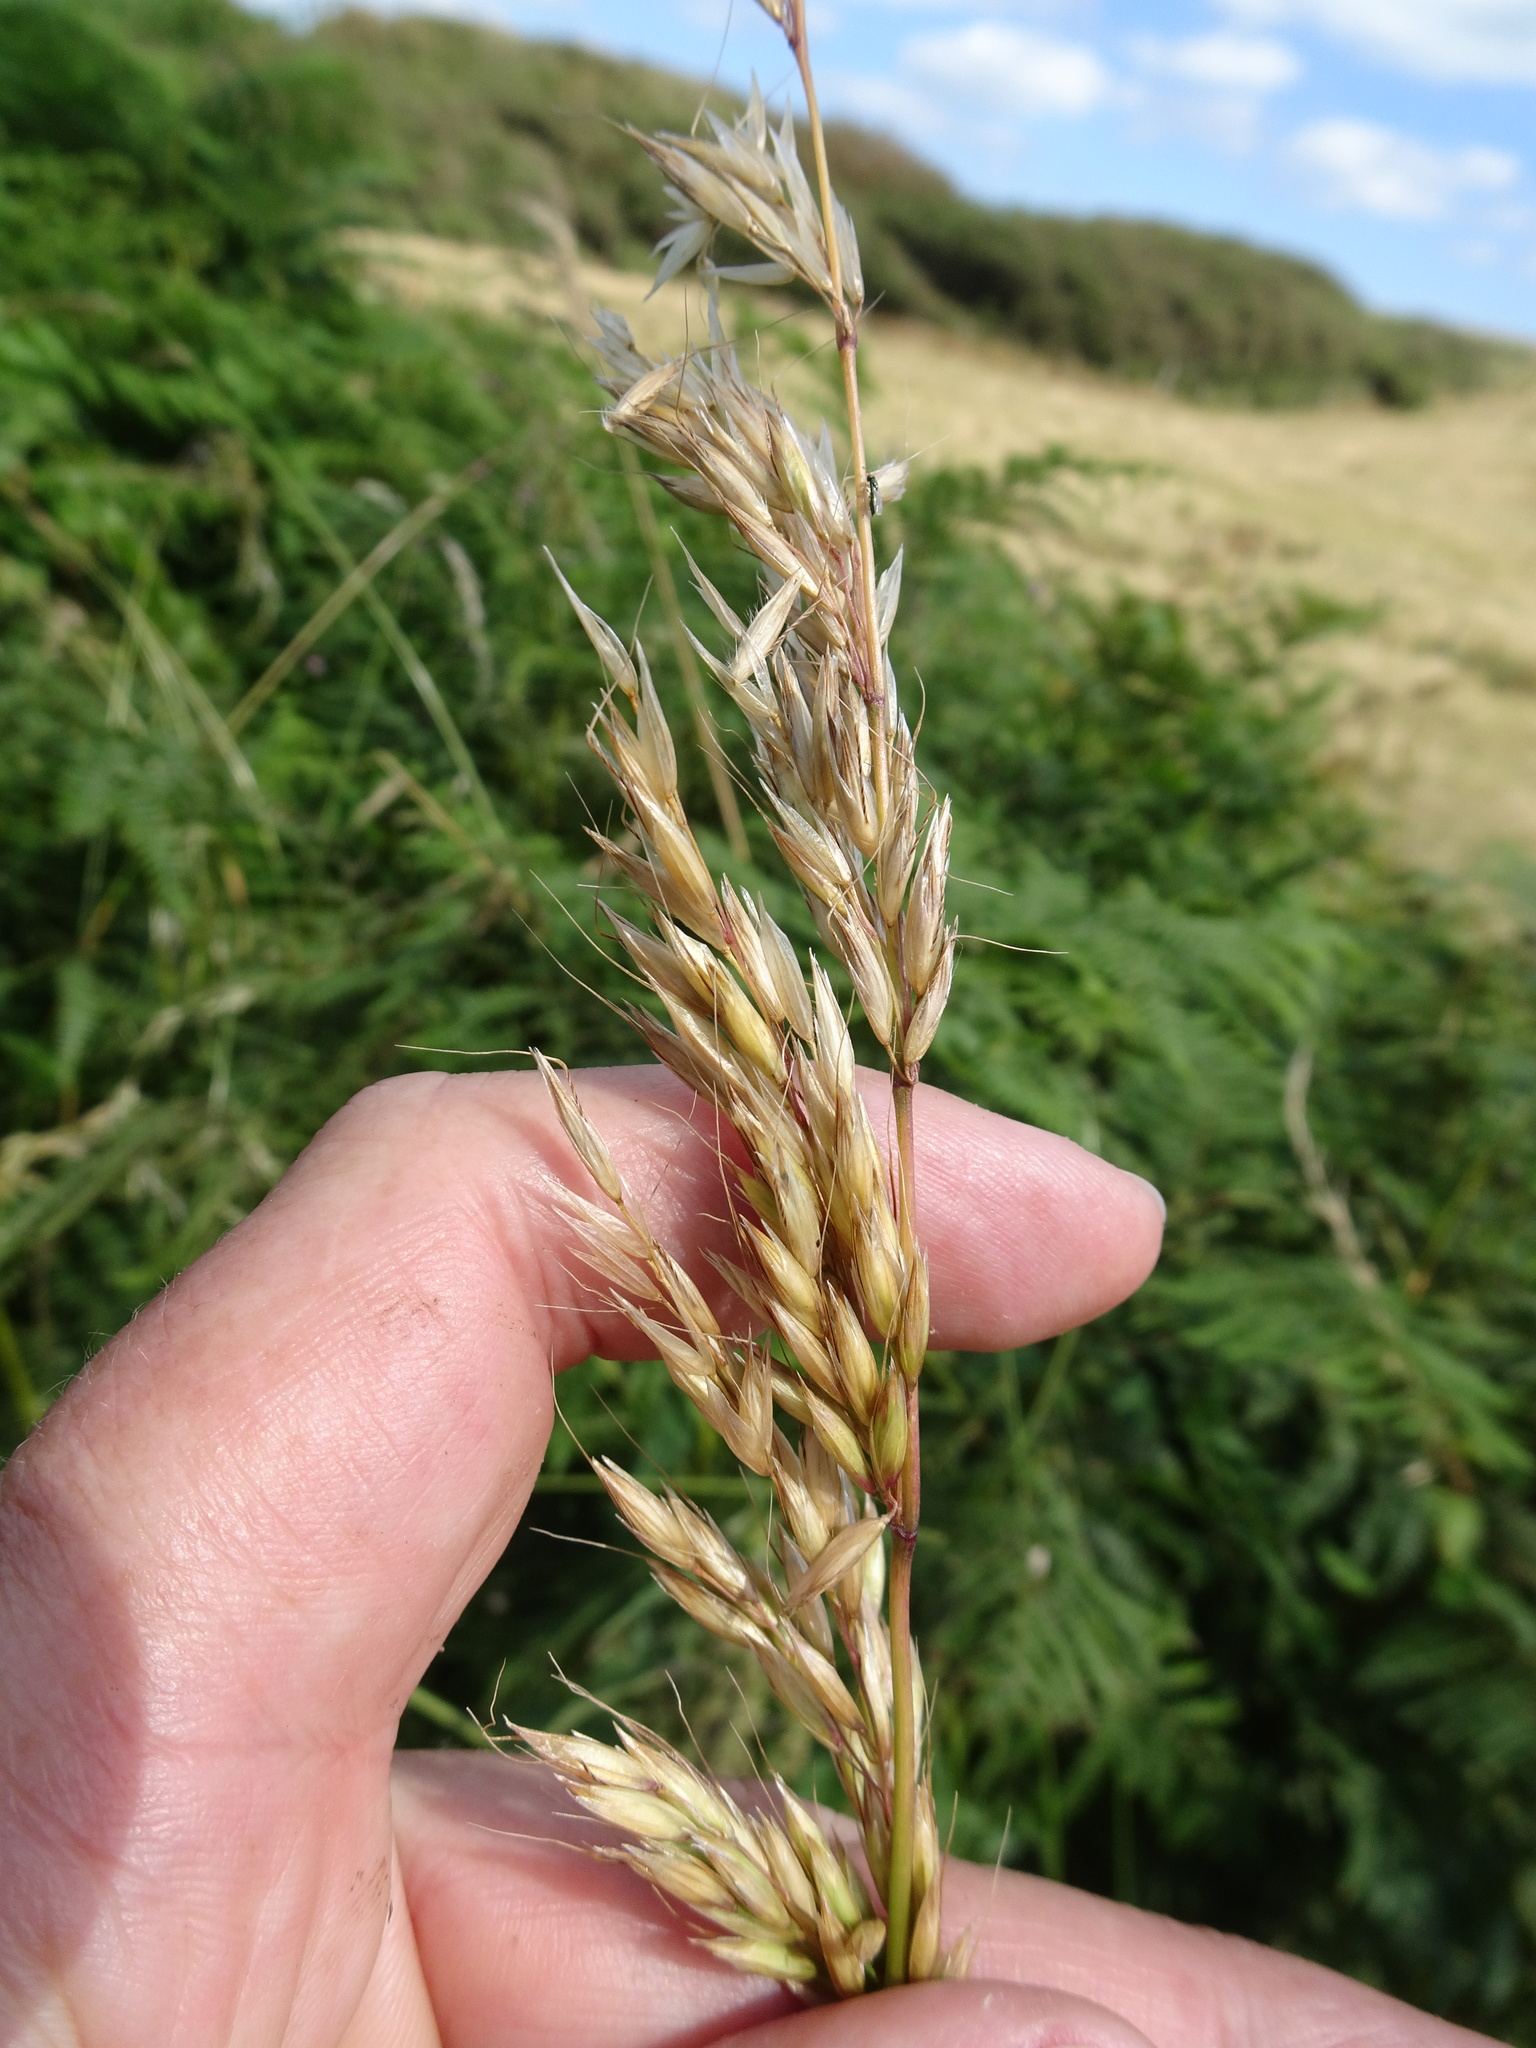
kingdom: Plantae
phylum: Tracheophyta
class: Liliopsida
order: Poales
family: Poaceae
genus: Arrhenatherum
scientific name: Arrhenatherum elatius
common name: Tall oatgrass
